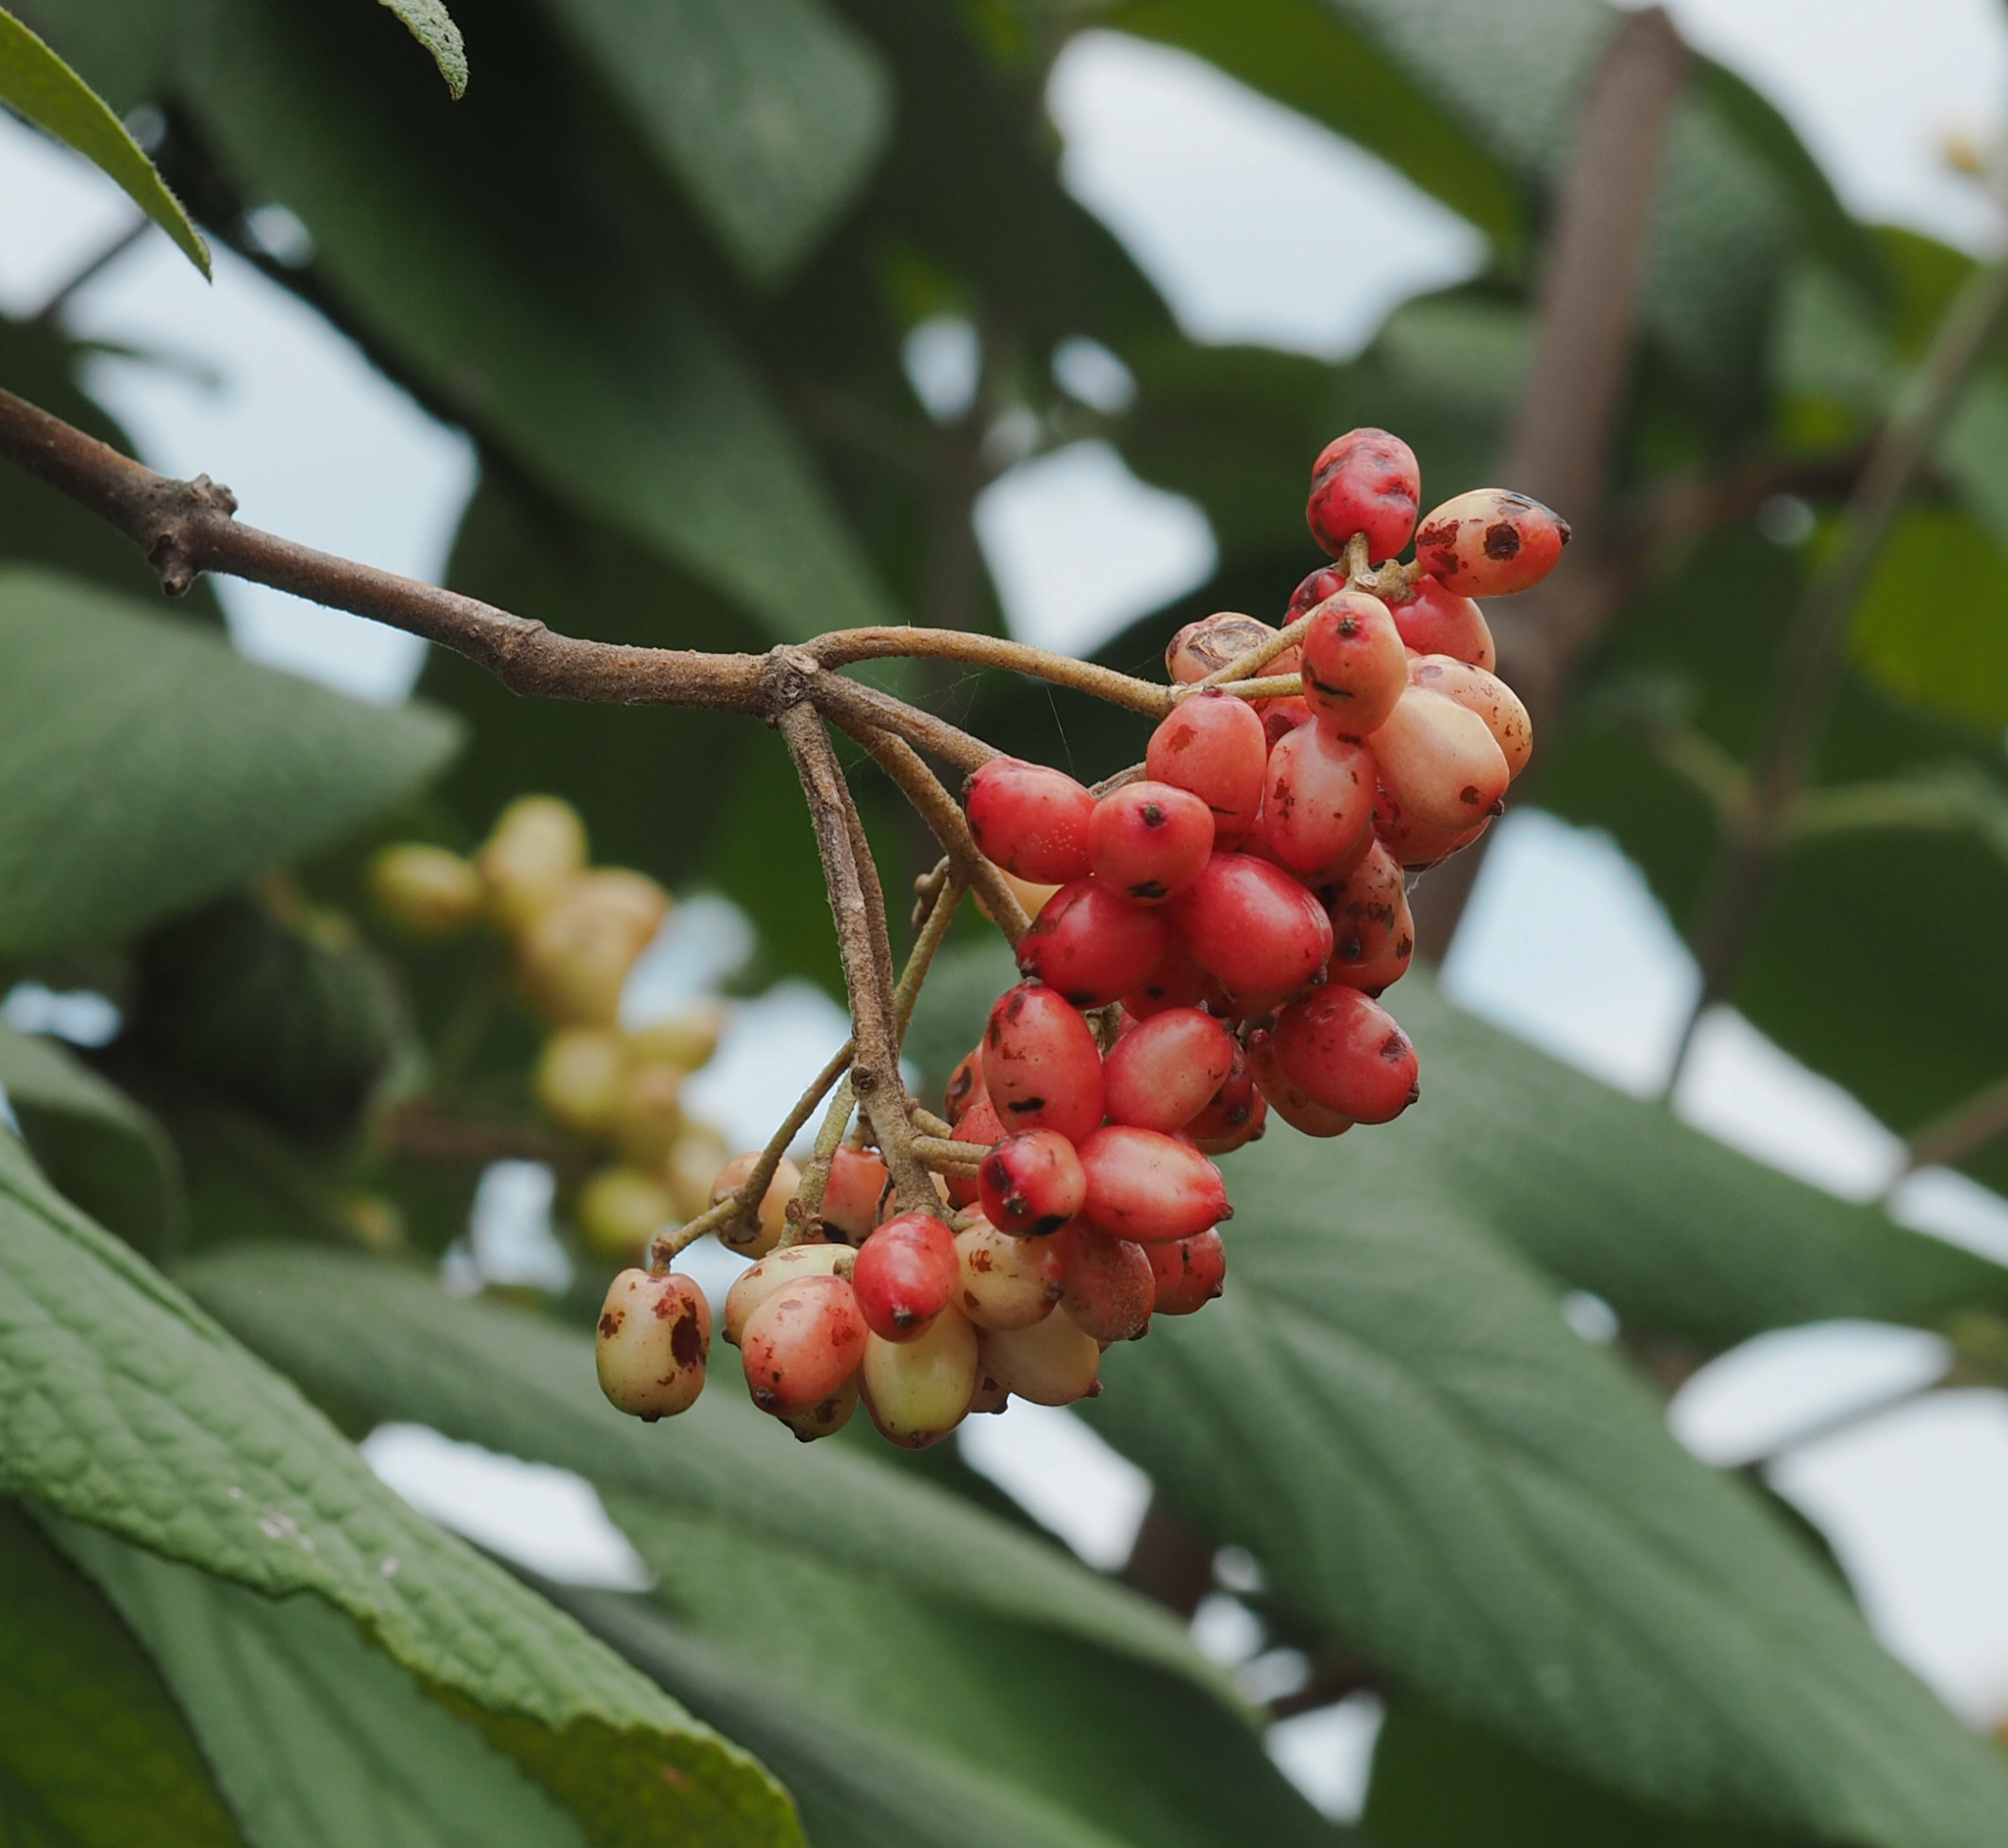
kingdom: Plantae
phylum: Tracheophyta
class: Magnoliopsida
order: Dipsacales
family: Viburnaceae
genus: Viburnum
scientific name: Viburnum rhytidophyllum
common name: Wrinkled viburnum
